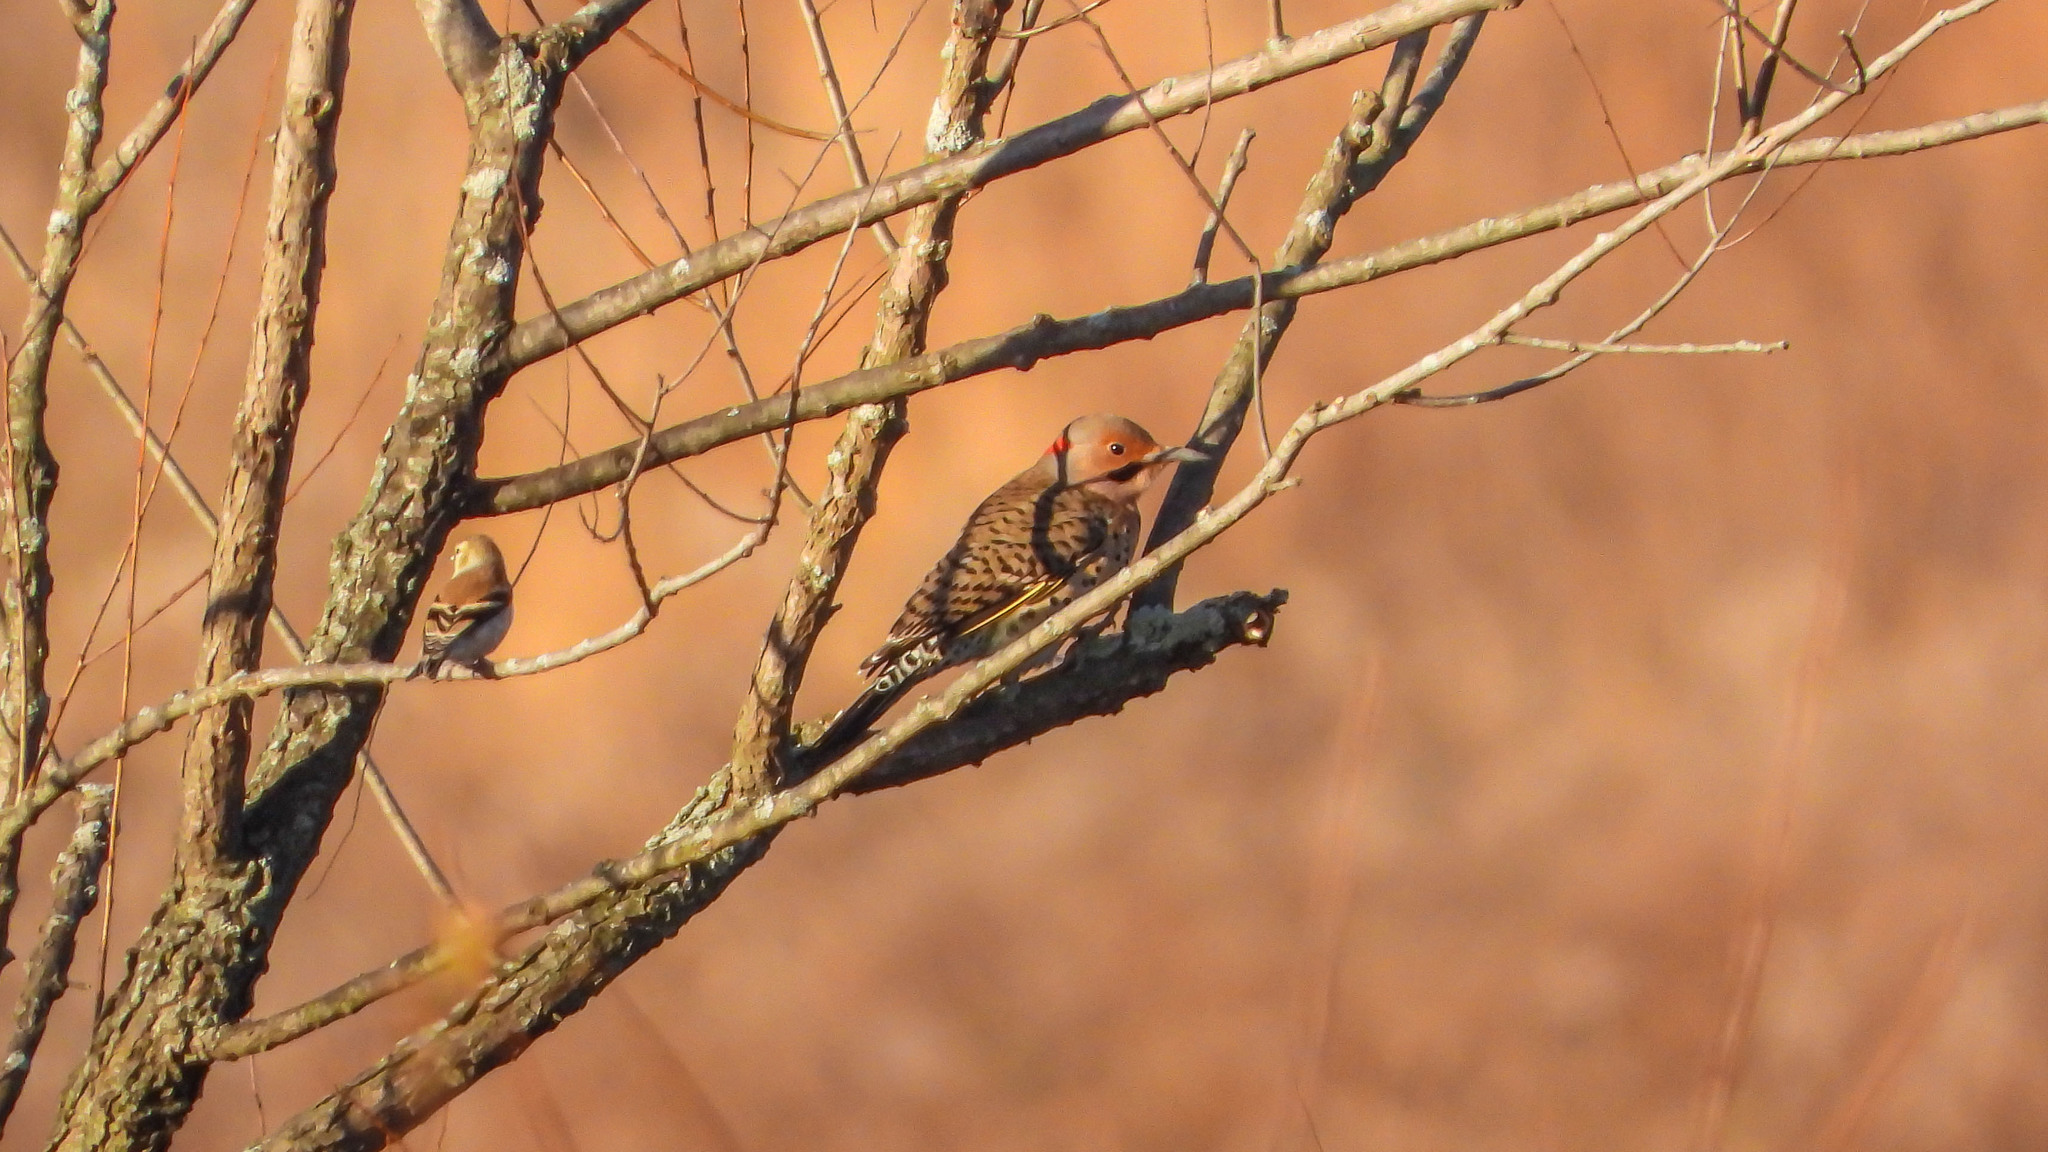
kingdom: Animalia
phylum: Chordata
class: Aves
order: Piciformes
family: Picidae
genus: Colaptes
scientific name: Colaptes auratus
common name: Northern flicker
